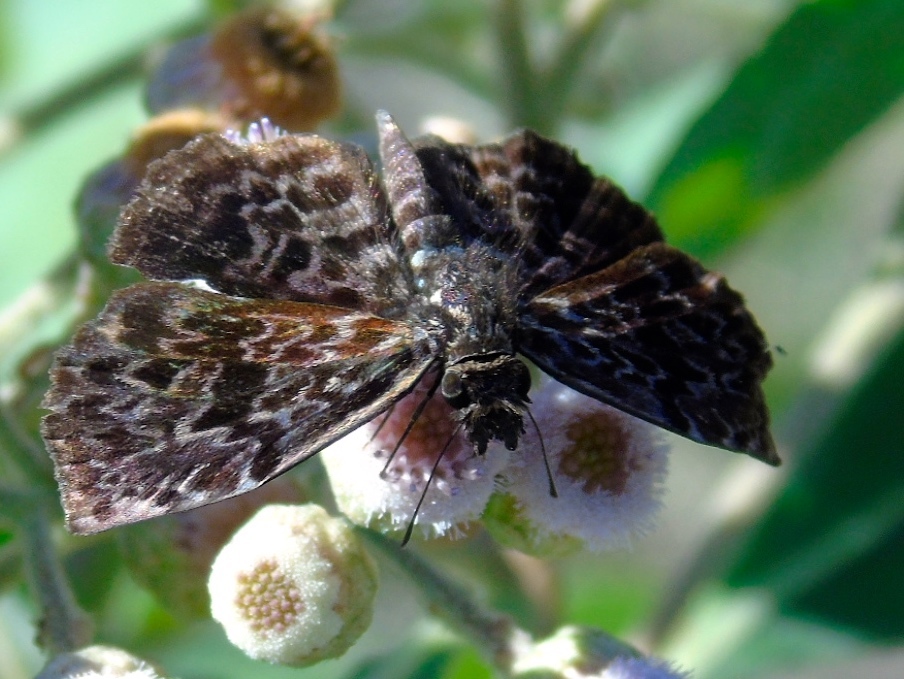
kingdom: Animalia
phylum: Arthropoda
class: Insecta
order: Lepidoptera
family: Hesperiidae
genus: Cycloglypha
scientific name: Cycloglypha thrasibulus
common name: Widespread bent-skipper
